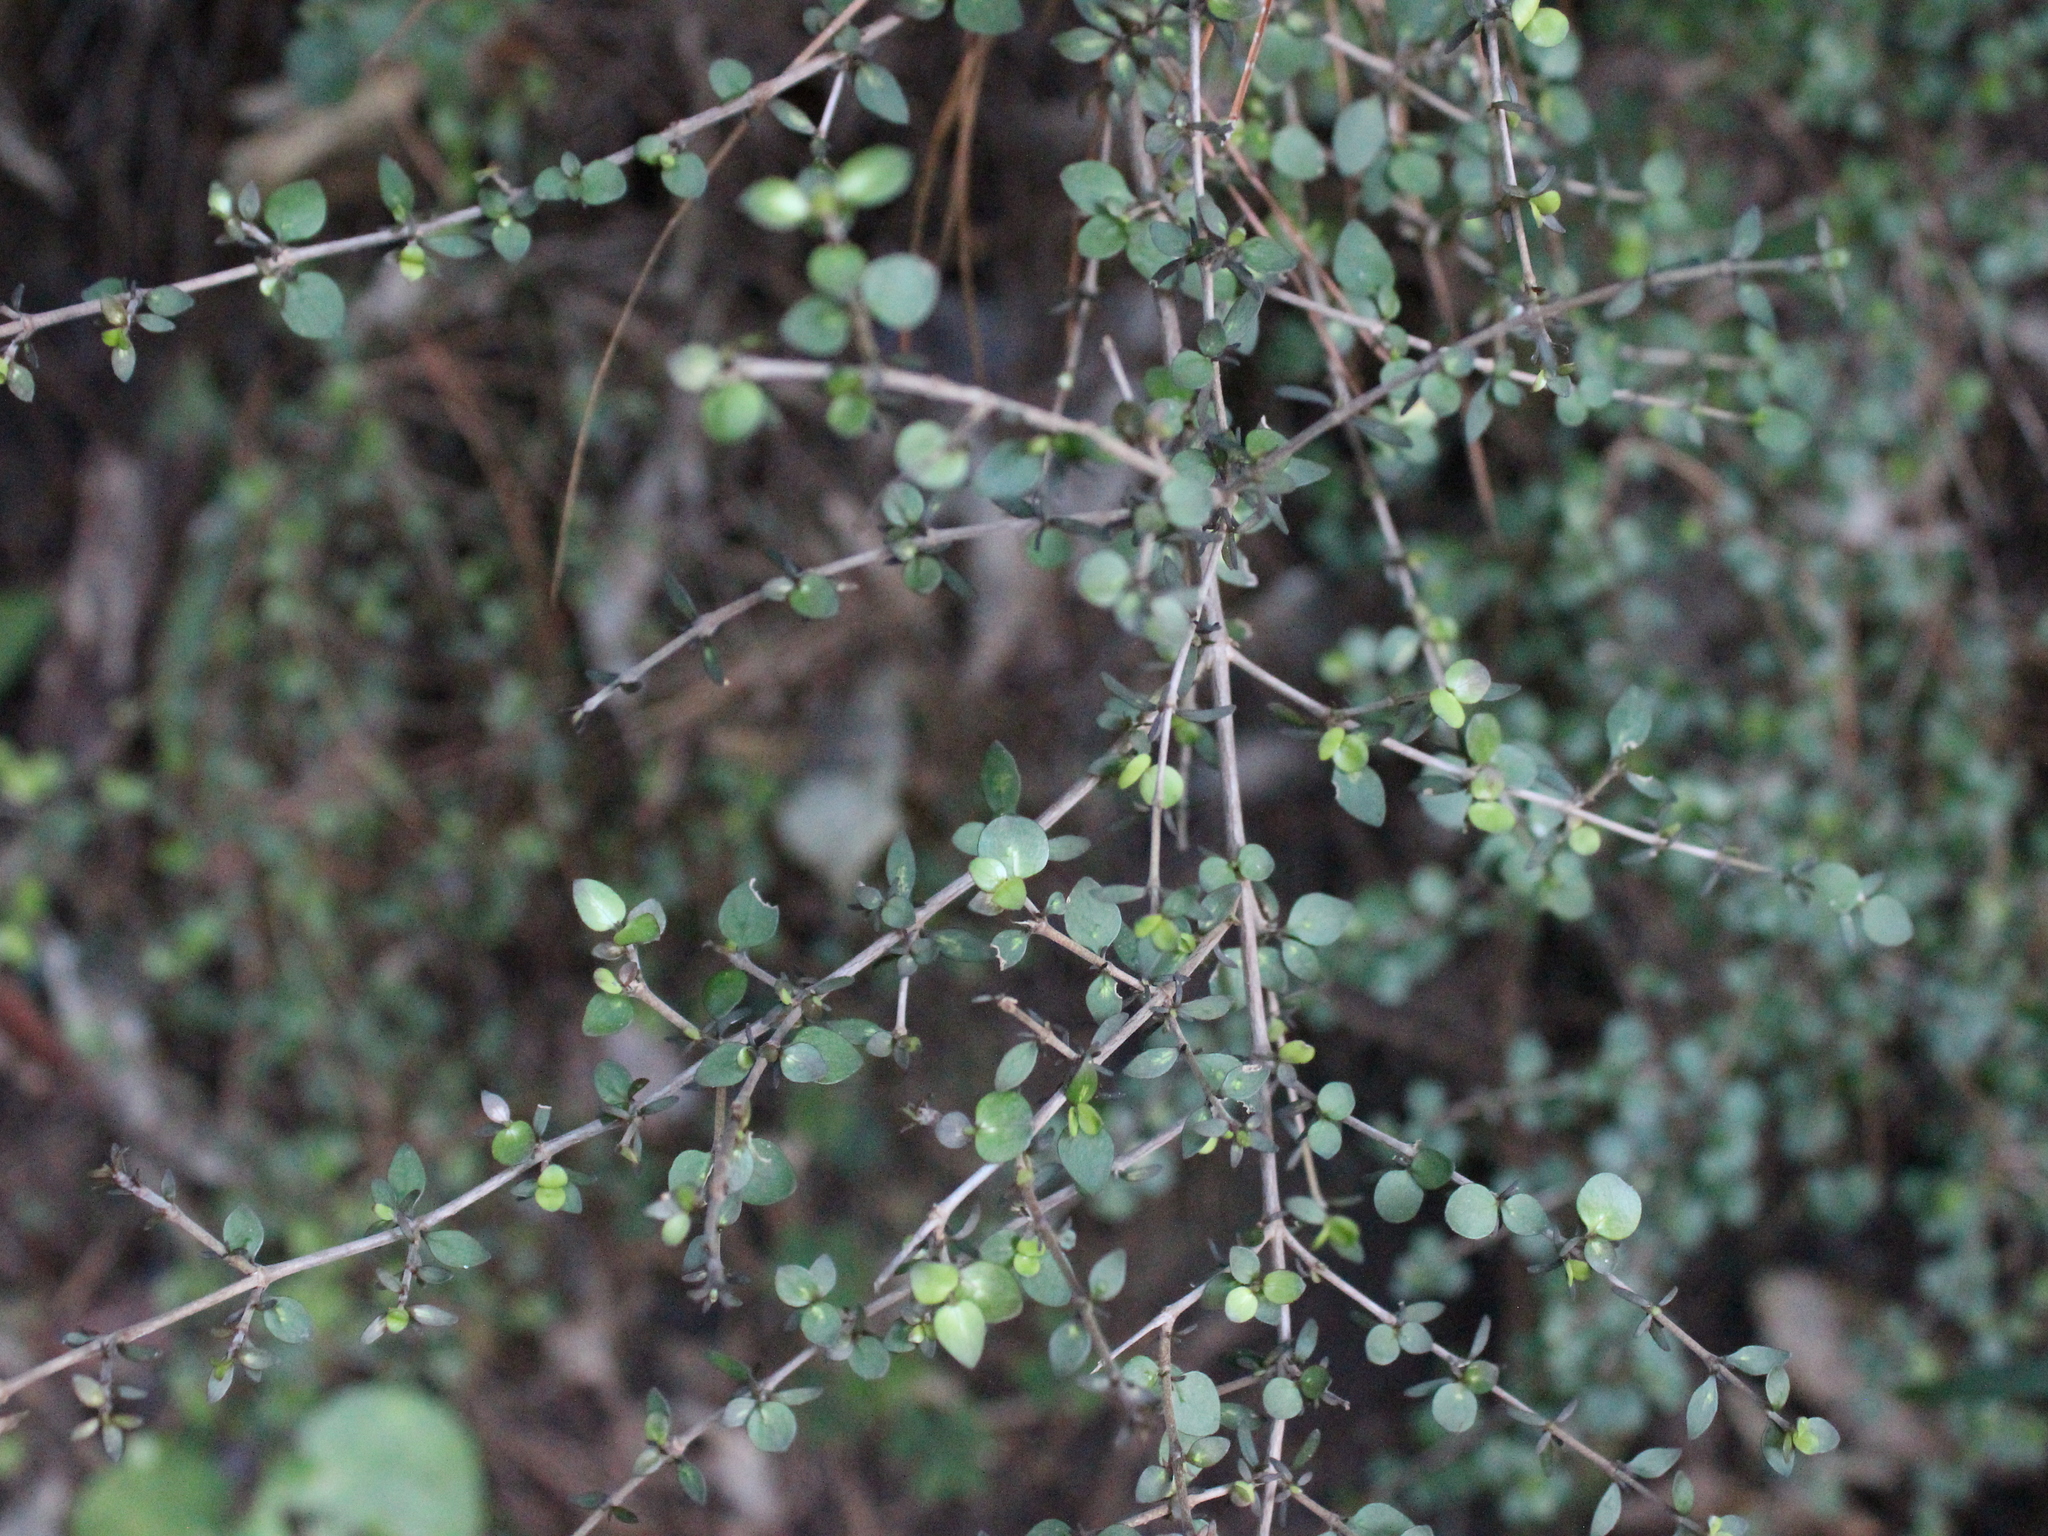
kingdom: Plantae
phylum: Tracheophyta
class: Magnoliopsida
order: Gentianales
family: Rubiaceae
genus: Coprosma
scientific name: Coprosma rhamnoides
